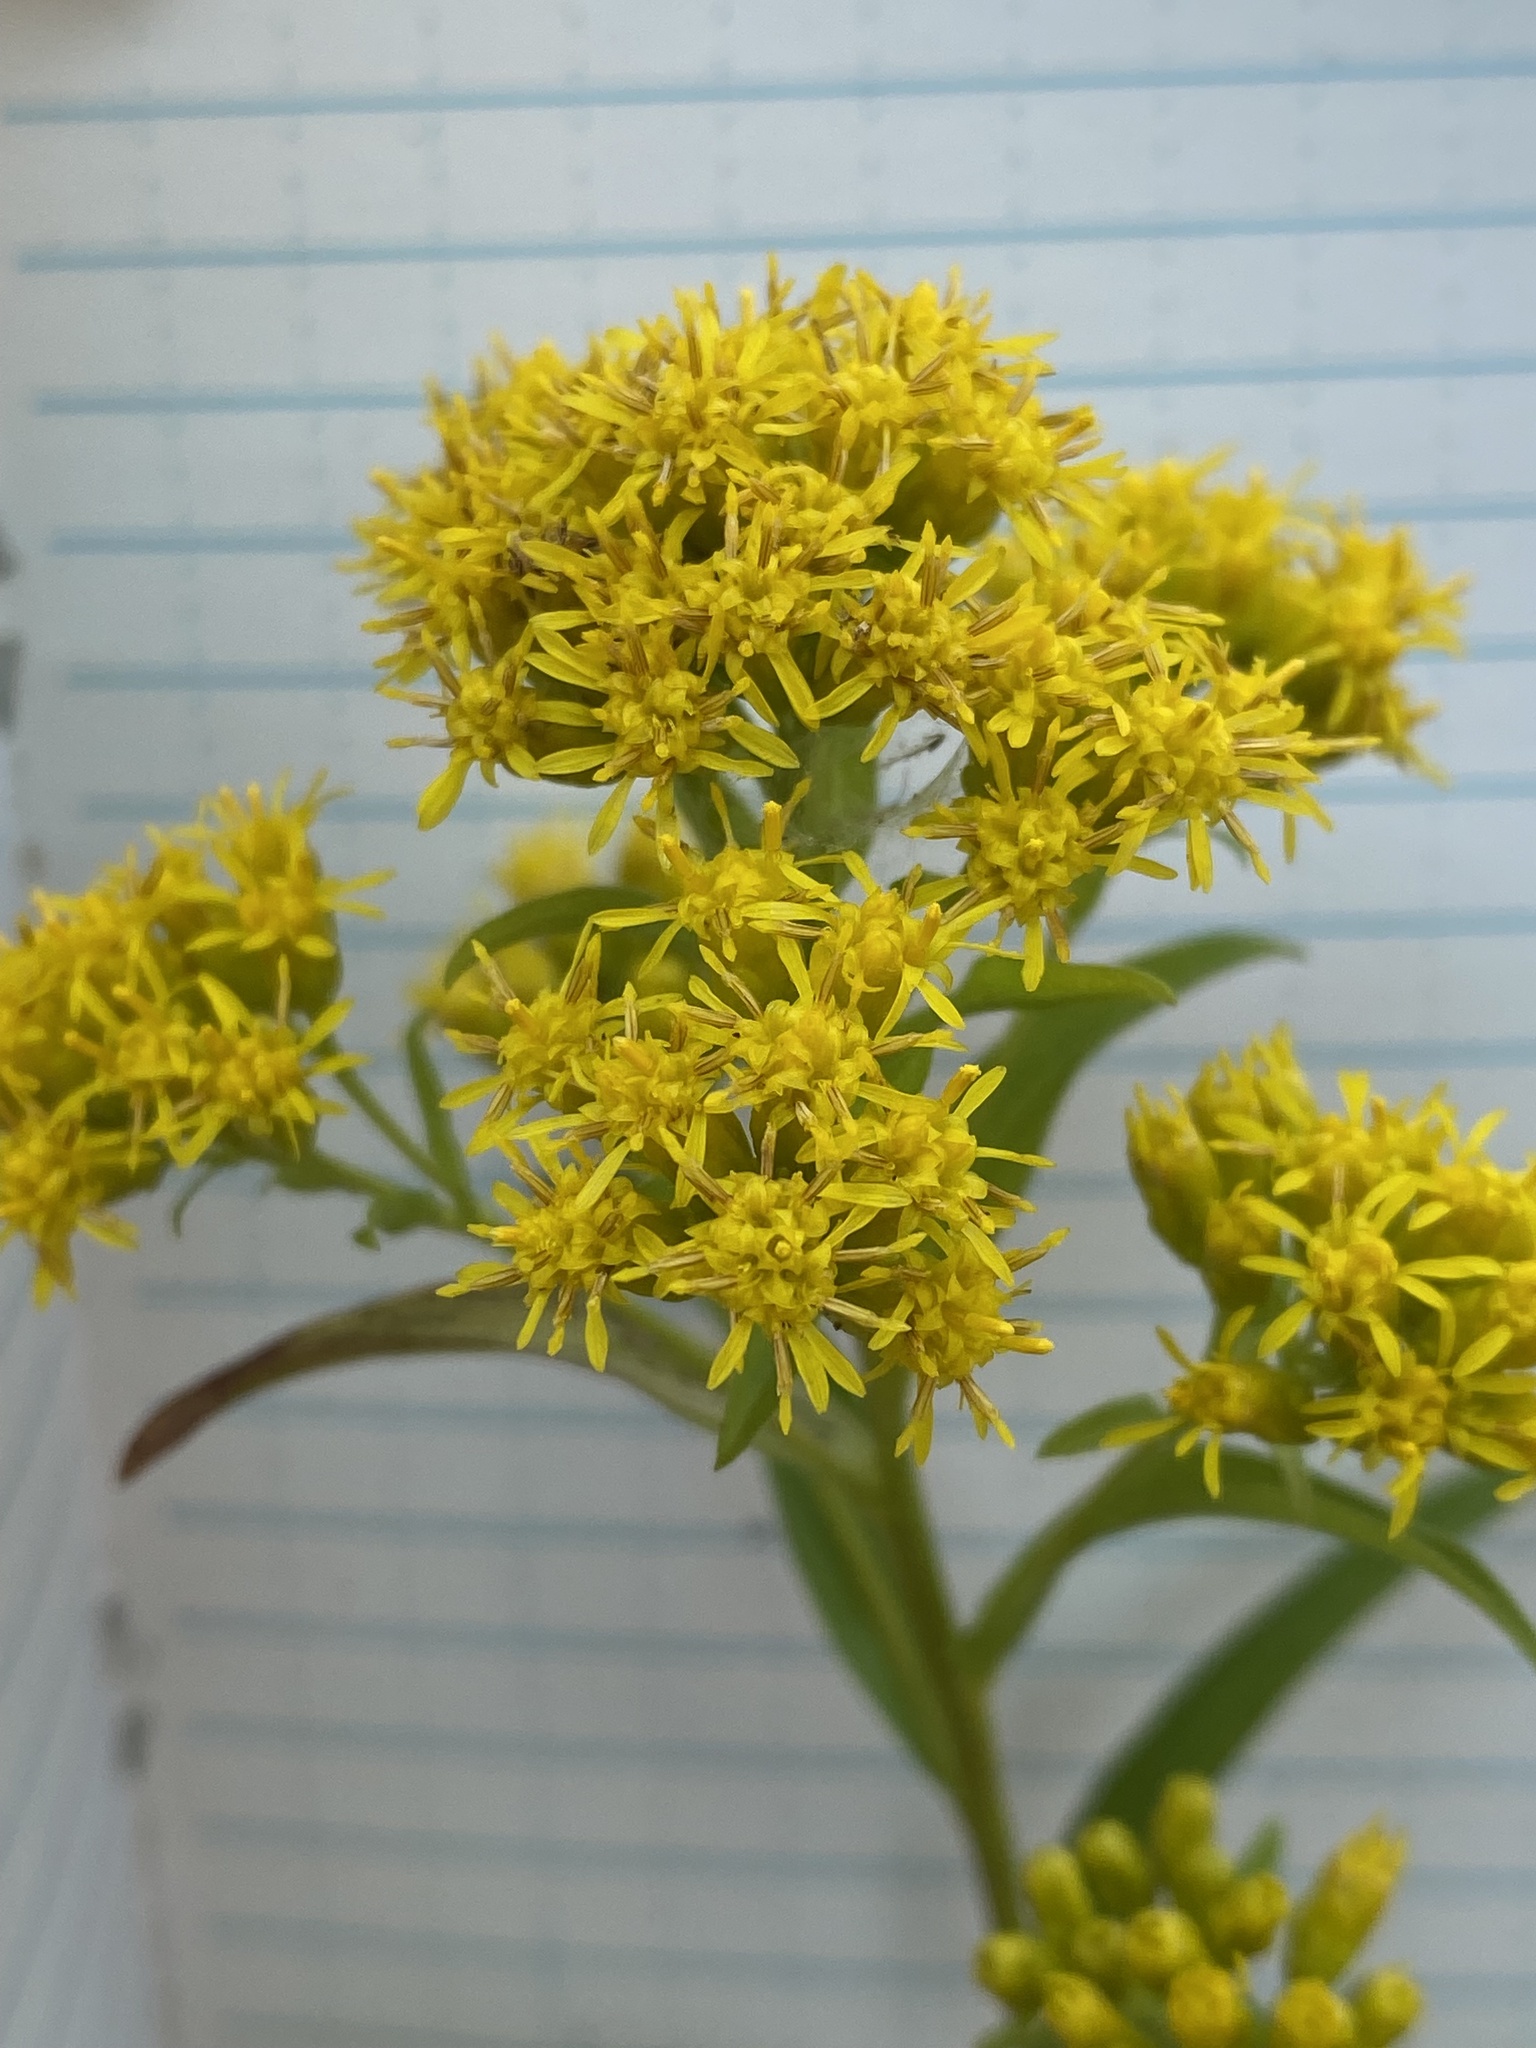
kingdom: Plantae
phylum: Tracheophyta
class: Magnoliopsida
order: Asterales
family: Asteraceae
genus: Solidago
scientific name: Solidago riddellii
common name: Riddell's goldenrod
